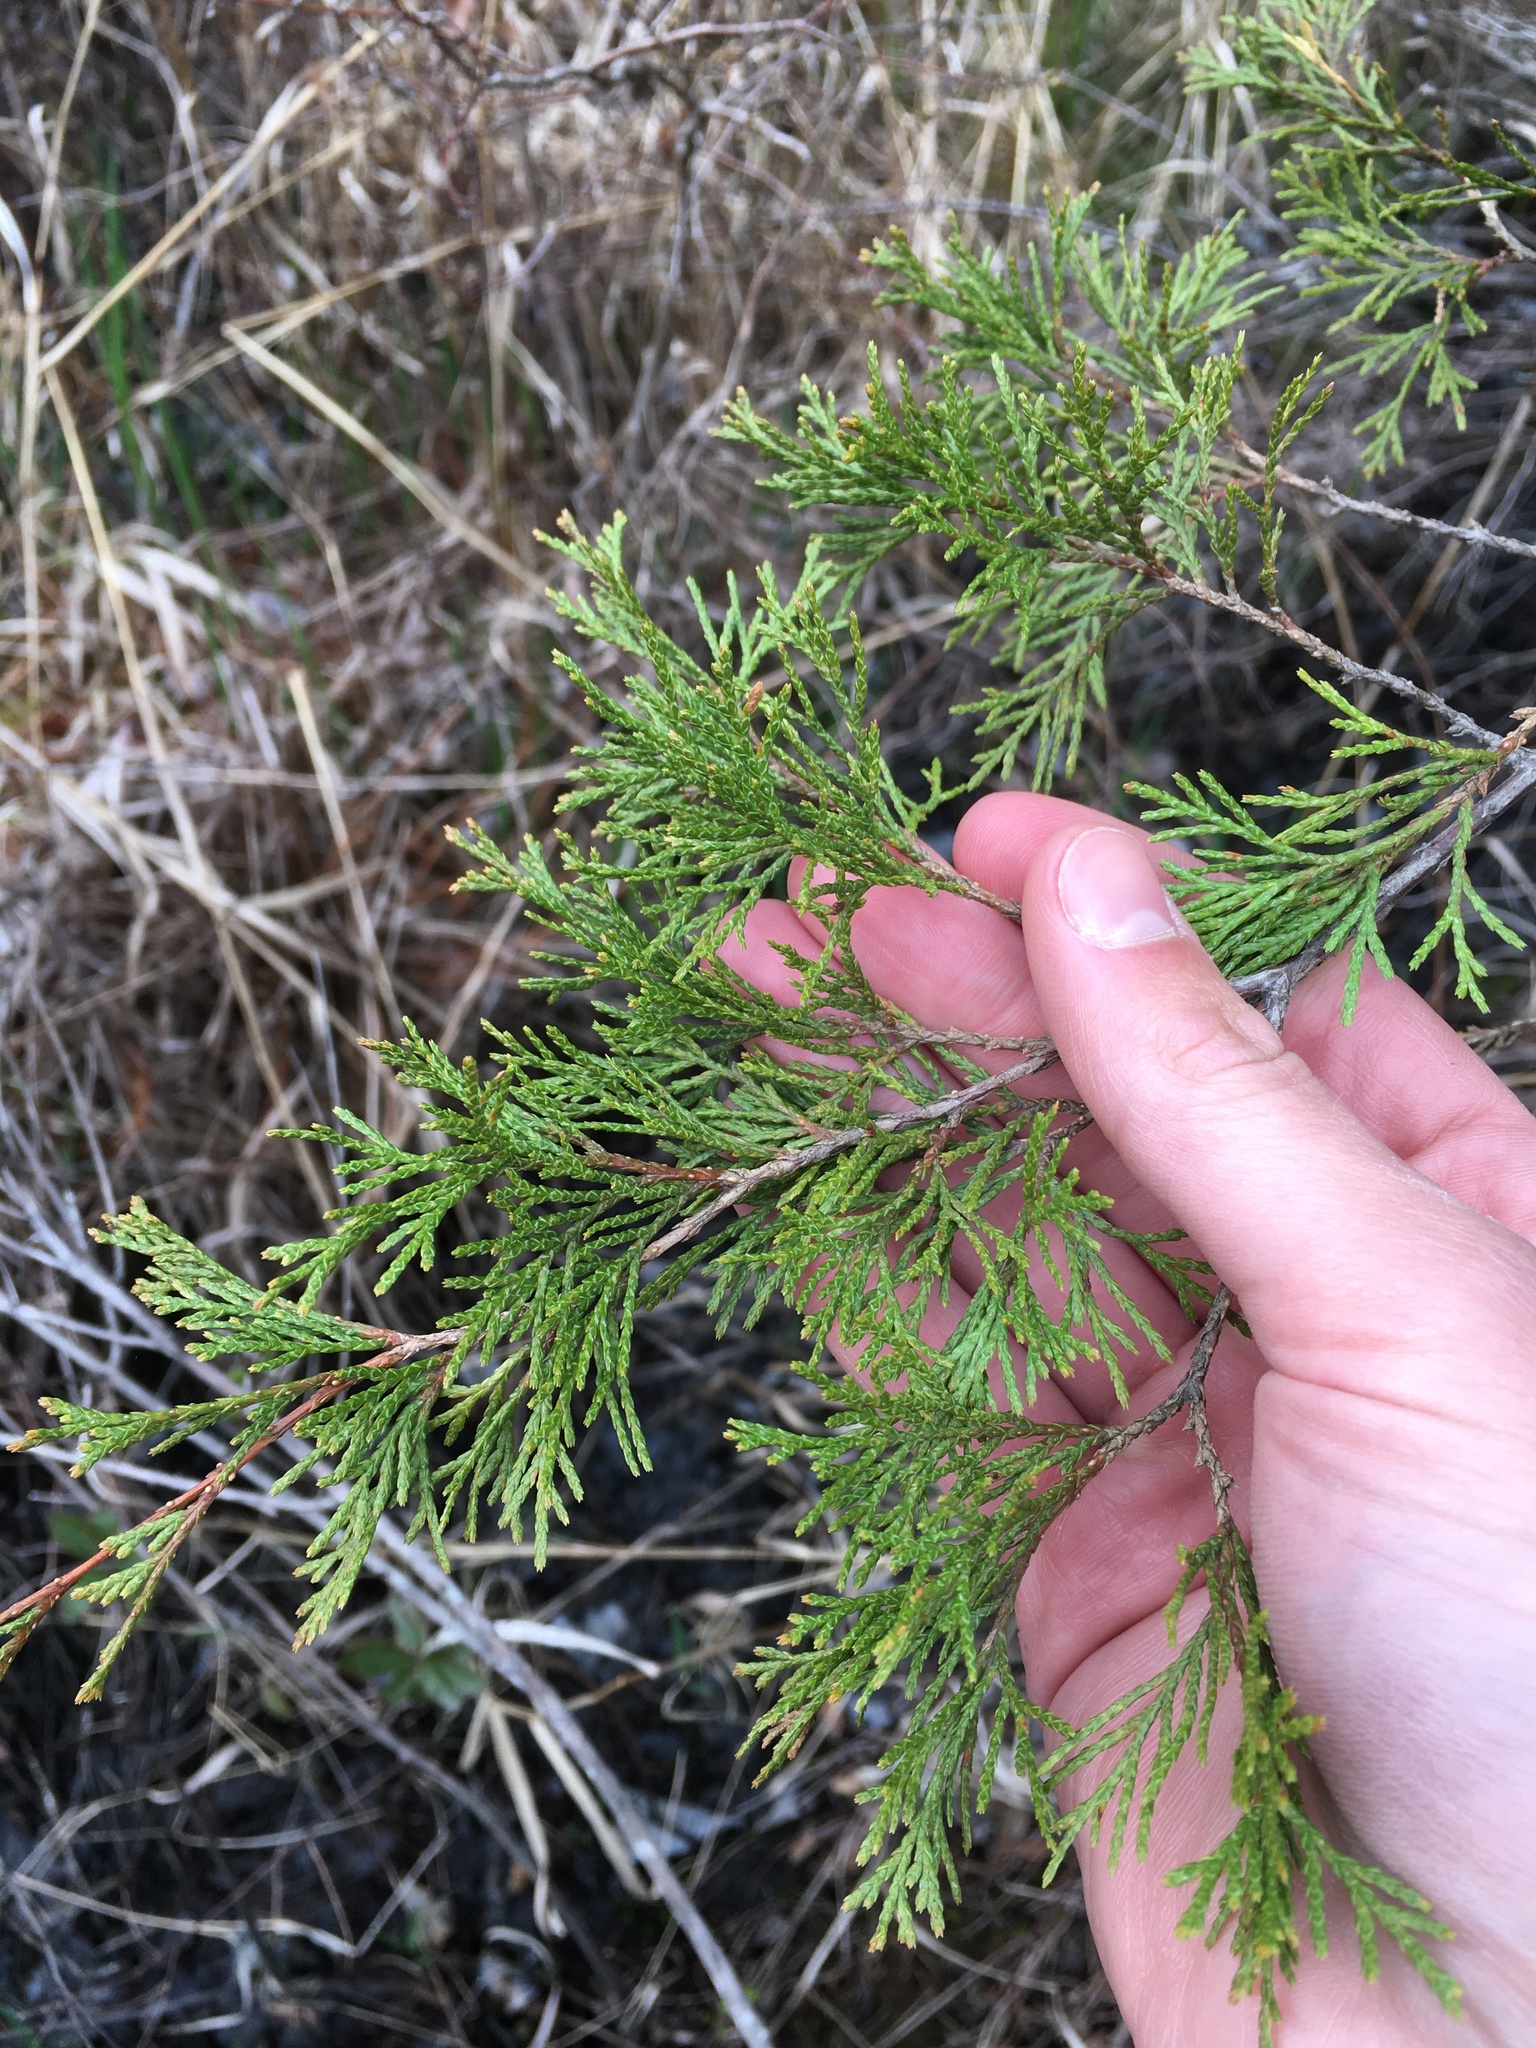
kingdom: Plantae
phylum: Tracheophyta
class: Pinopsida
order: Pinales
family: Cupressaceae
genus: Chamaecyparis
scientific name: Chamaecyparis thyoides
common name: Atlantic white cedar
